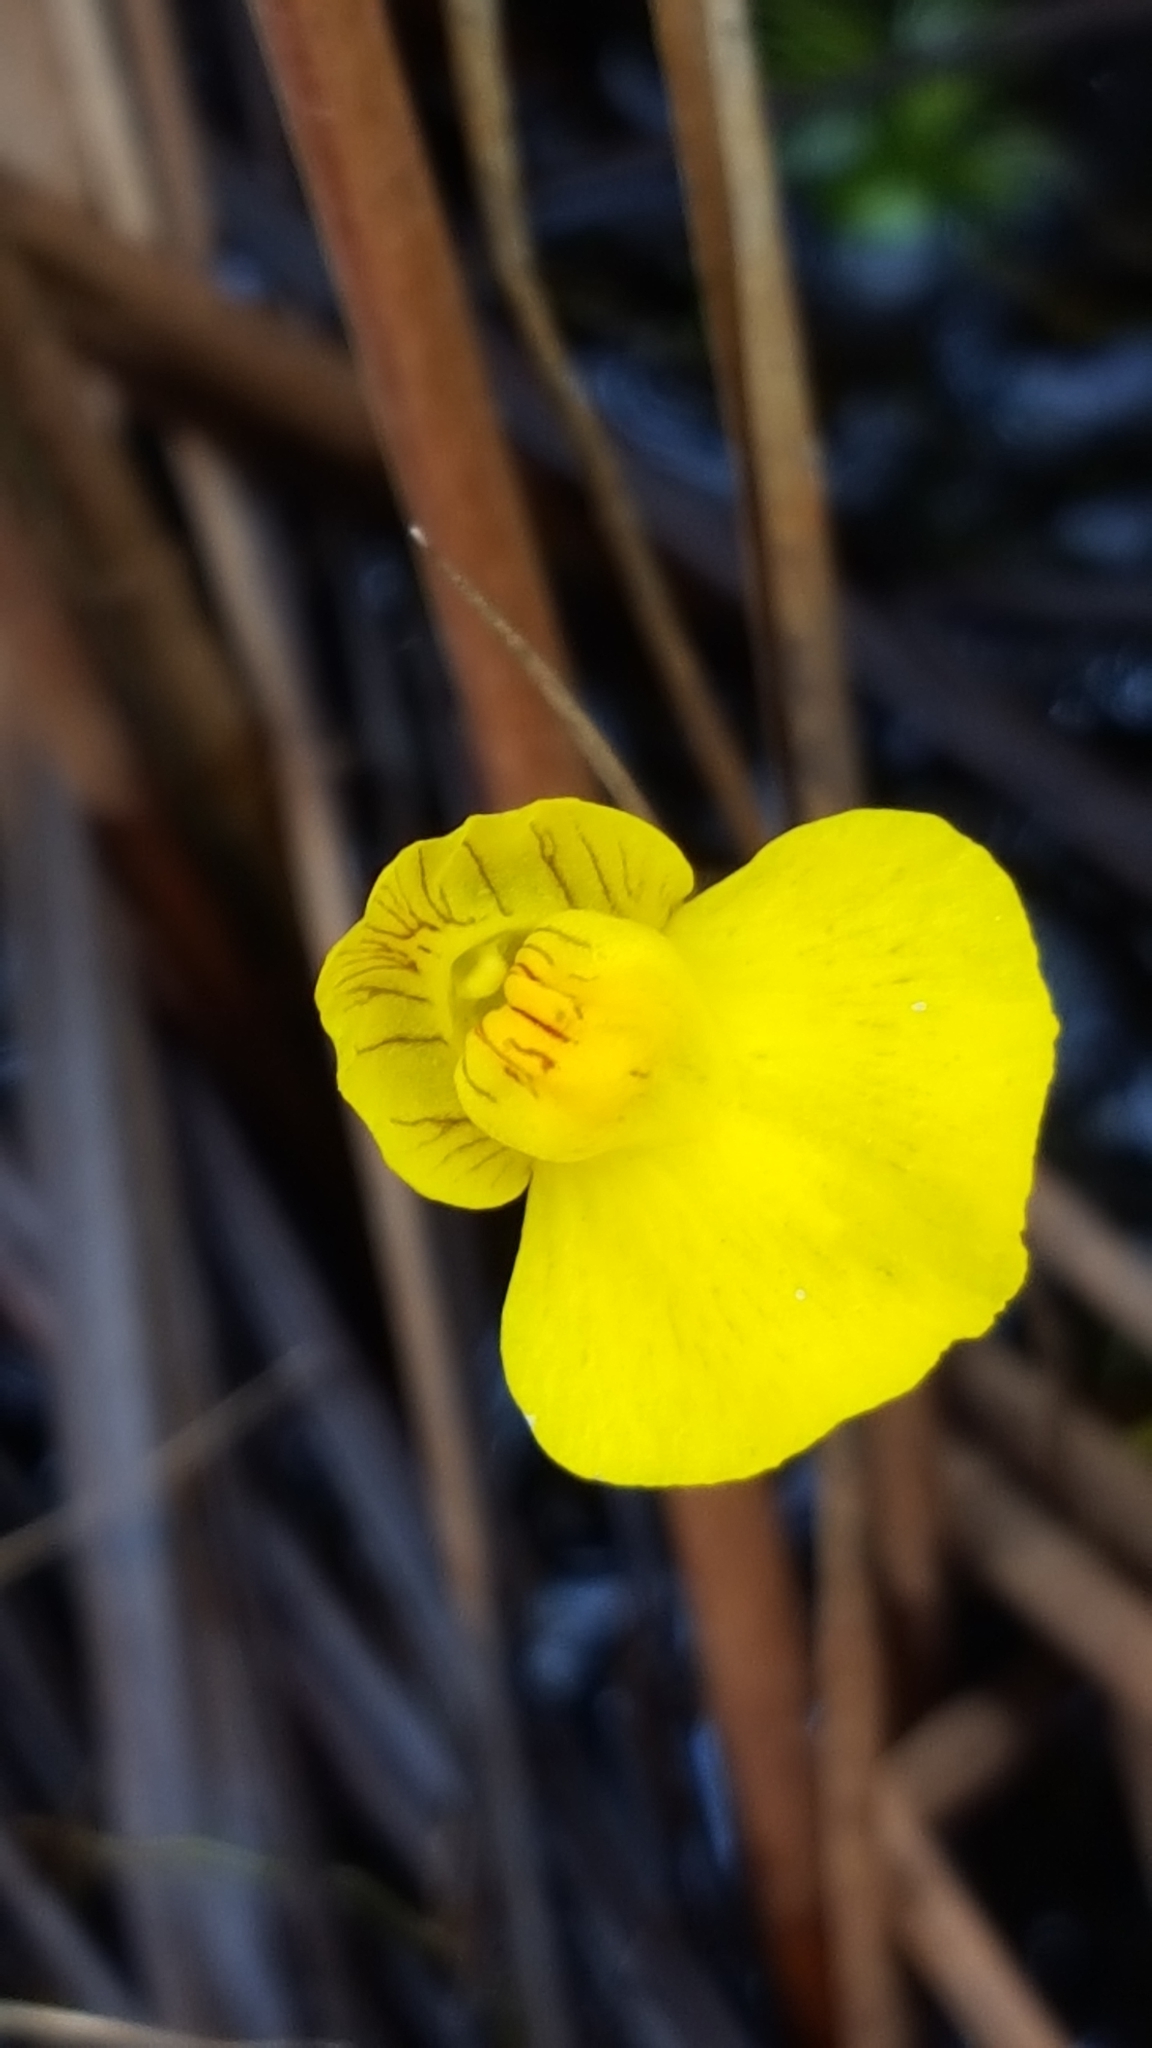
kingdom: Plantae
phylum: Tracheophyta
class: Magnoliopsida
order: Lamiales
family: Lentibulariaceae
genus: Utricularia
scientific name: Utricularia intermedia
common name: Intermediate bladderwort
